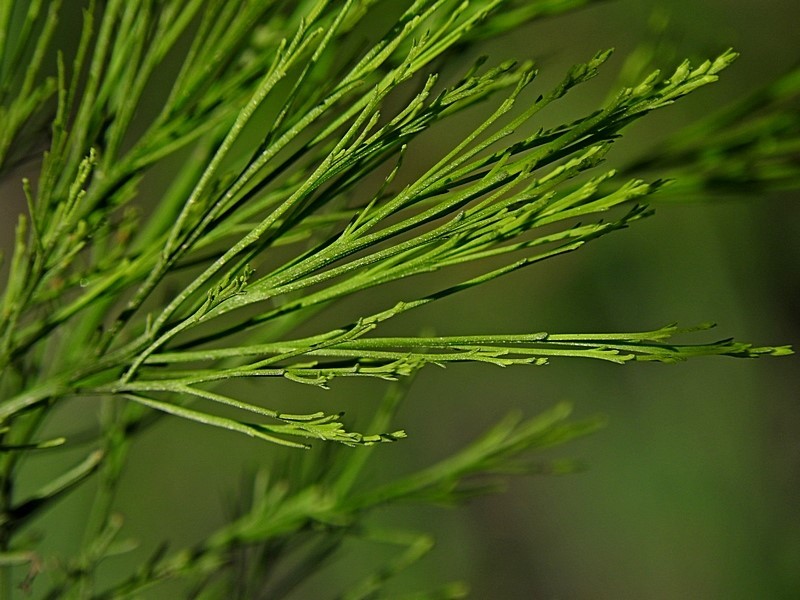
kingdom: Plantae
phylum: Tracheophyta
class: Magnoliopsida
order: Santalales
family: Santalaceae
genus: Exocarpos
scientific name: Exocarpos cupressiformis
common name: Cherry ballart
